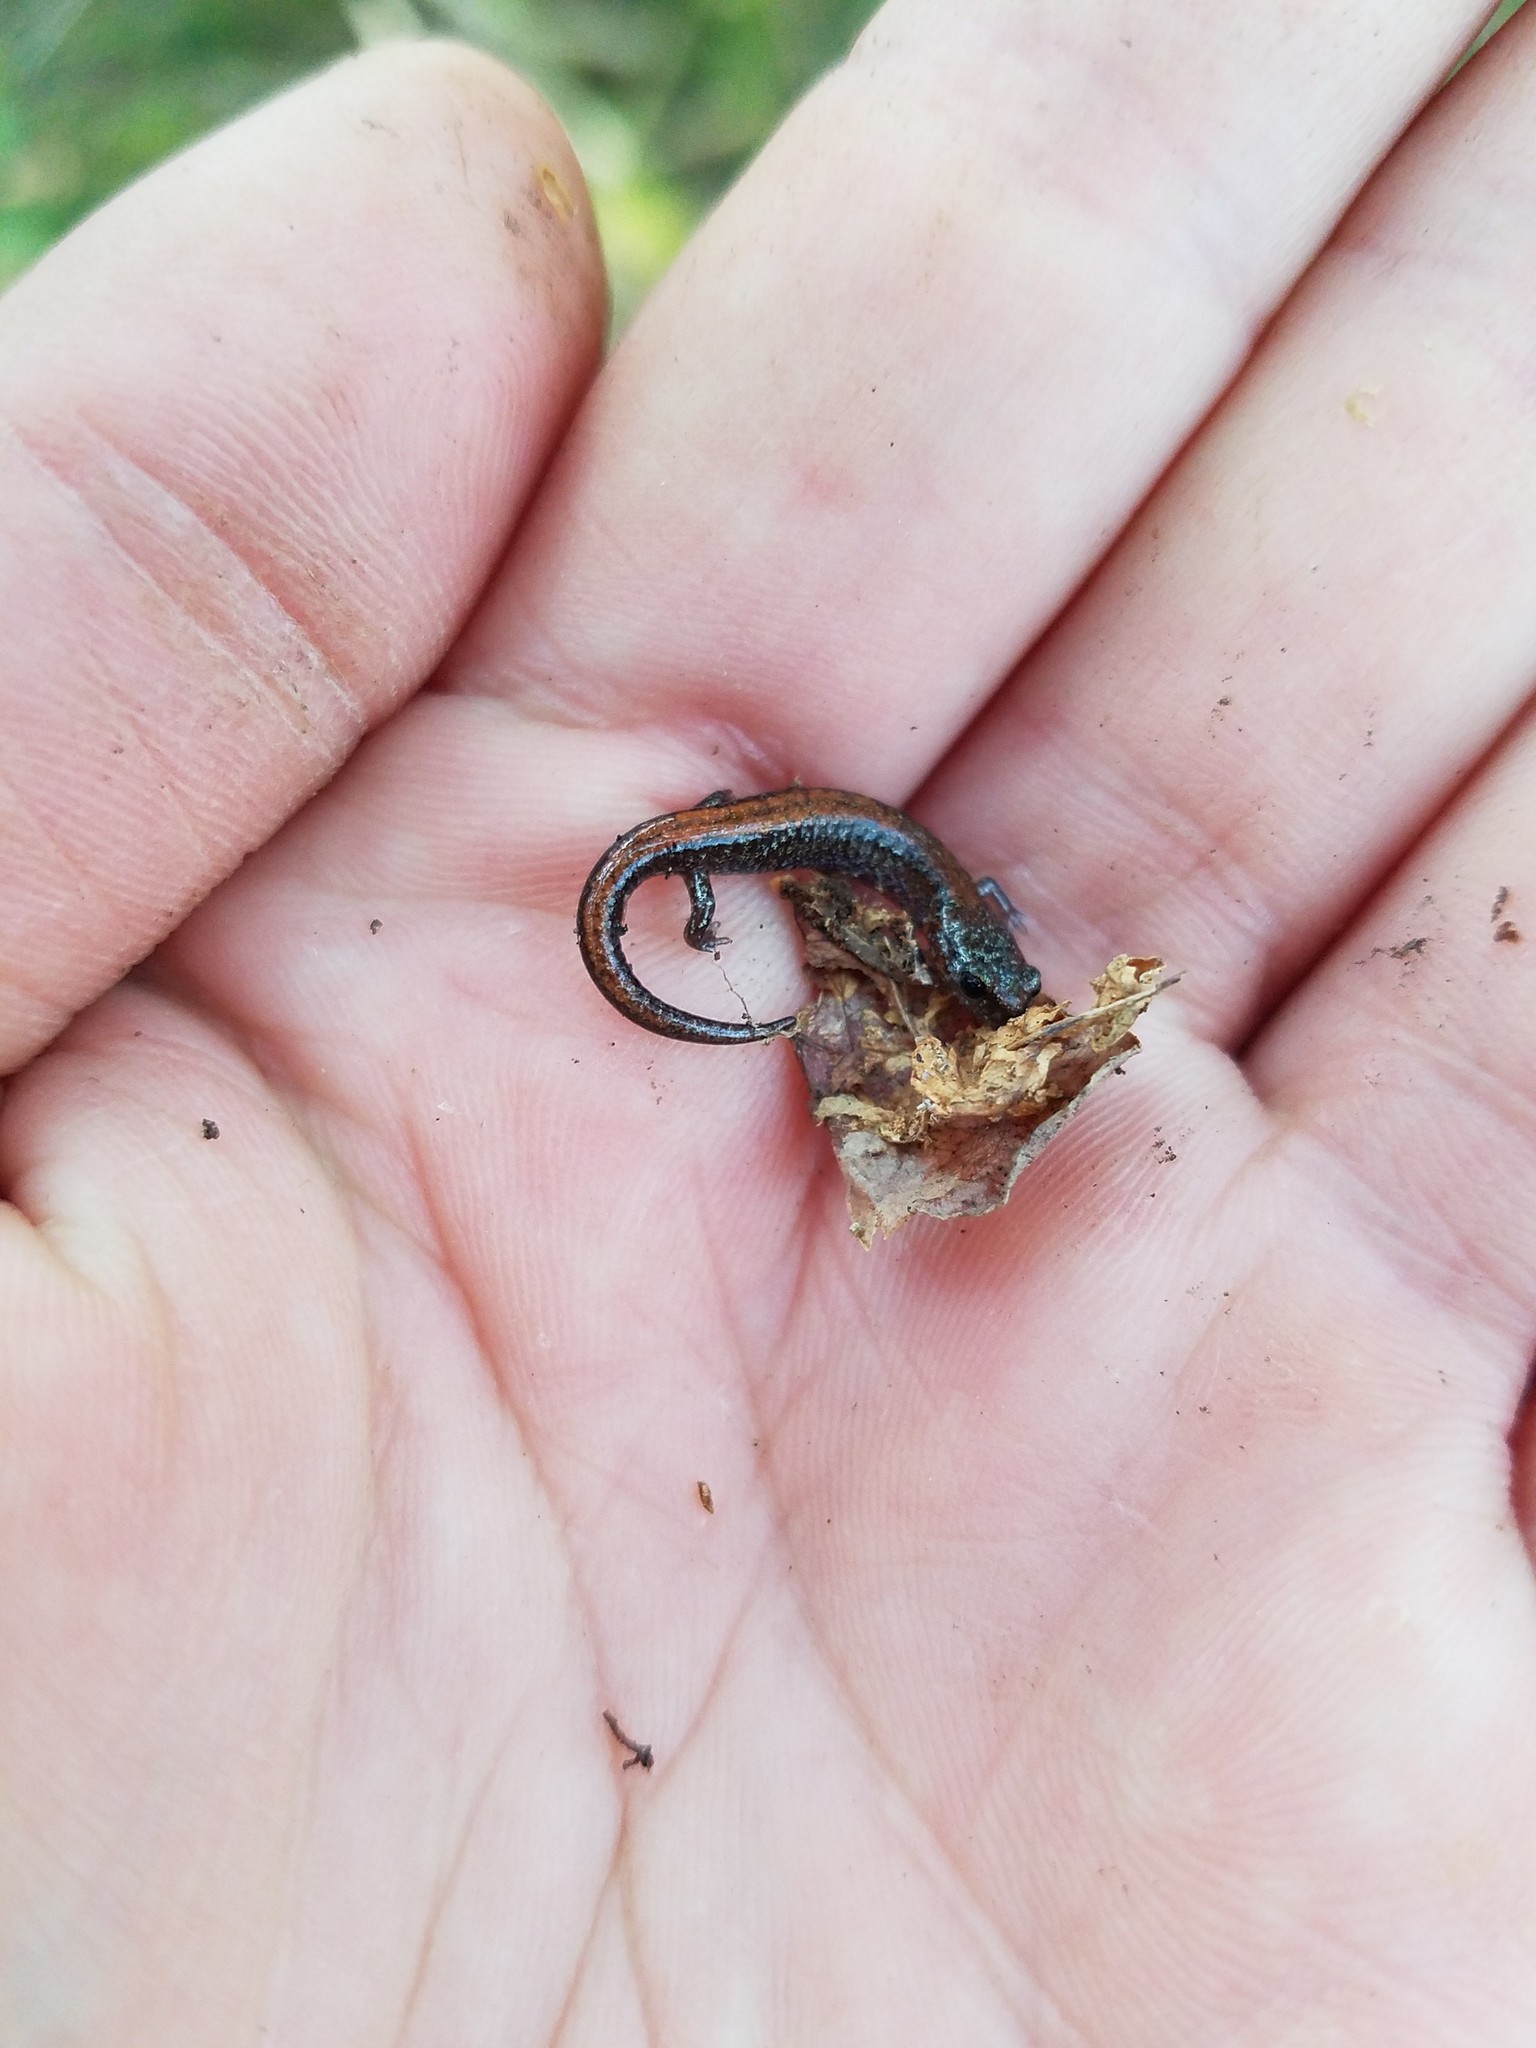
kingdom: Animalia
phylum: Chordata
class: Amphibia
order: Caudata
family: Plethodontidae
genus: Plethodon
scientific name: Plethodon cinereus
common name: Redback salamander
